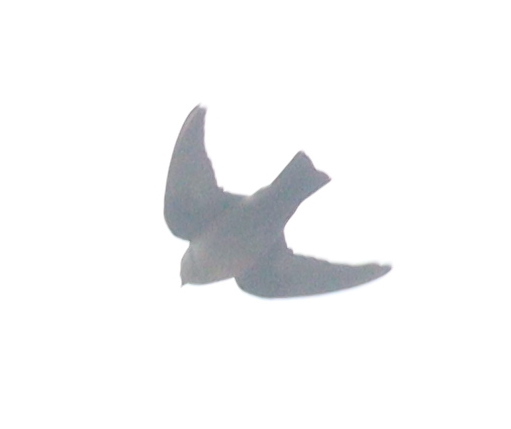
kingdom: Animalia
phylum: Chordata
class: Aves
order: Passeriformes
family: Hirundinidae
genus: Ptyonoprogne
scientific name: Ptyonoprogne rupestris
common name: Eurasian crag martin
